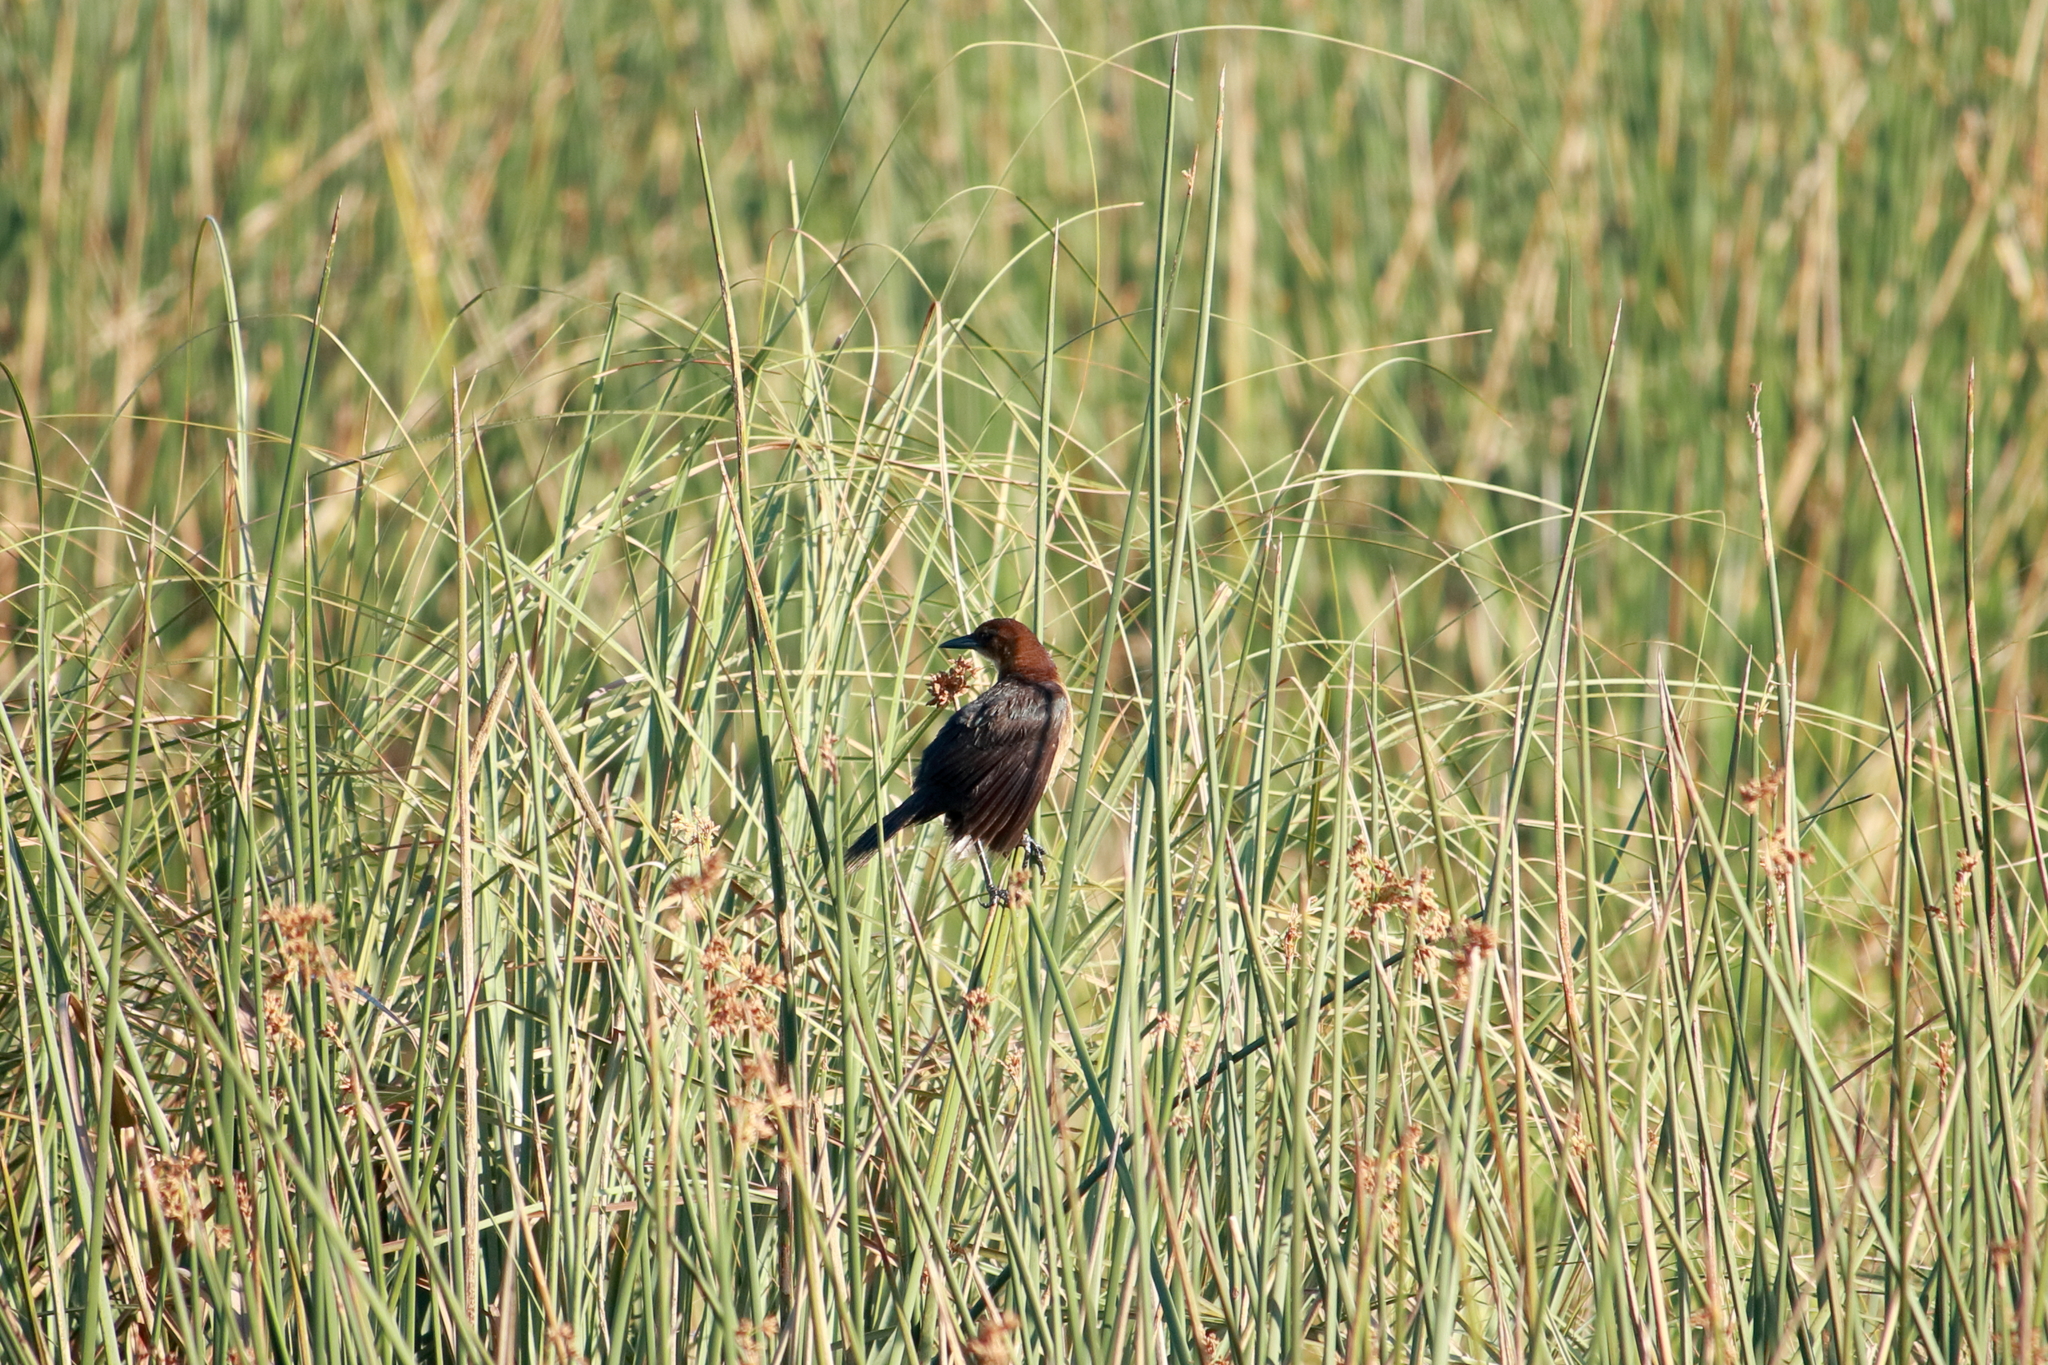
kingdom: Animalia
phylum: Chordata
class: Aves
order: Passeriformes
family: Icteridae
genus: Quiscalus
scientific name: Quiscalus major
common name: Boat-tailed grackle
